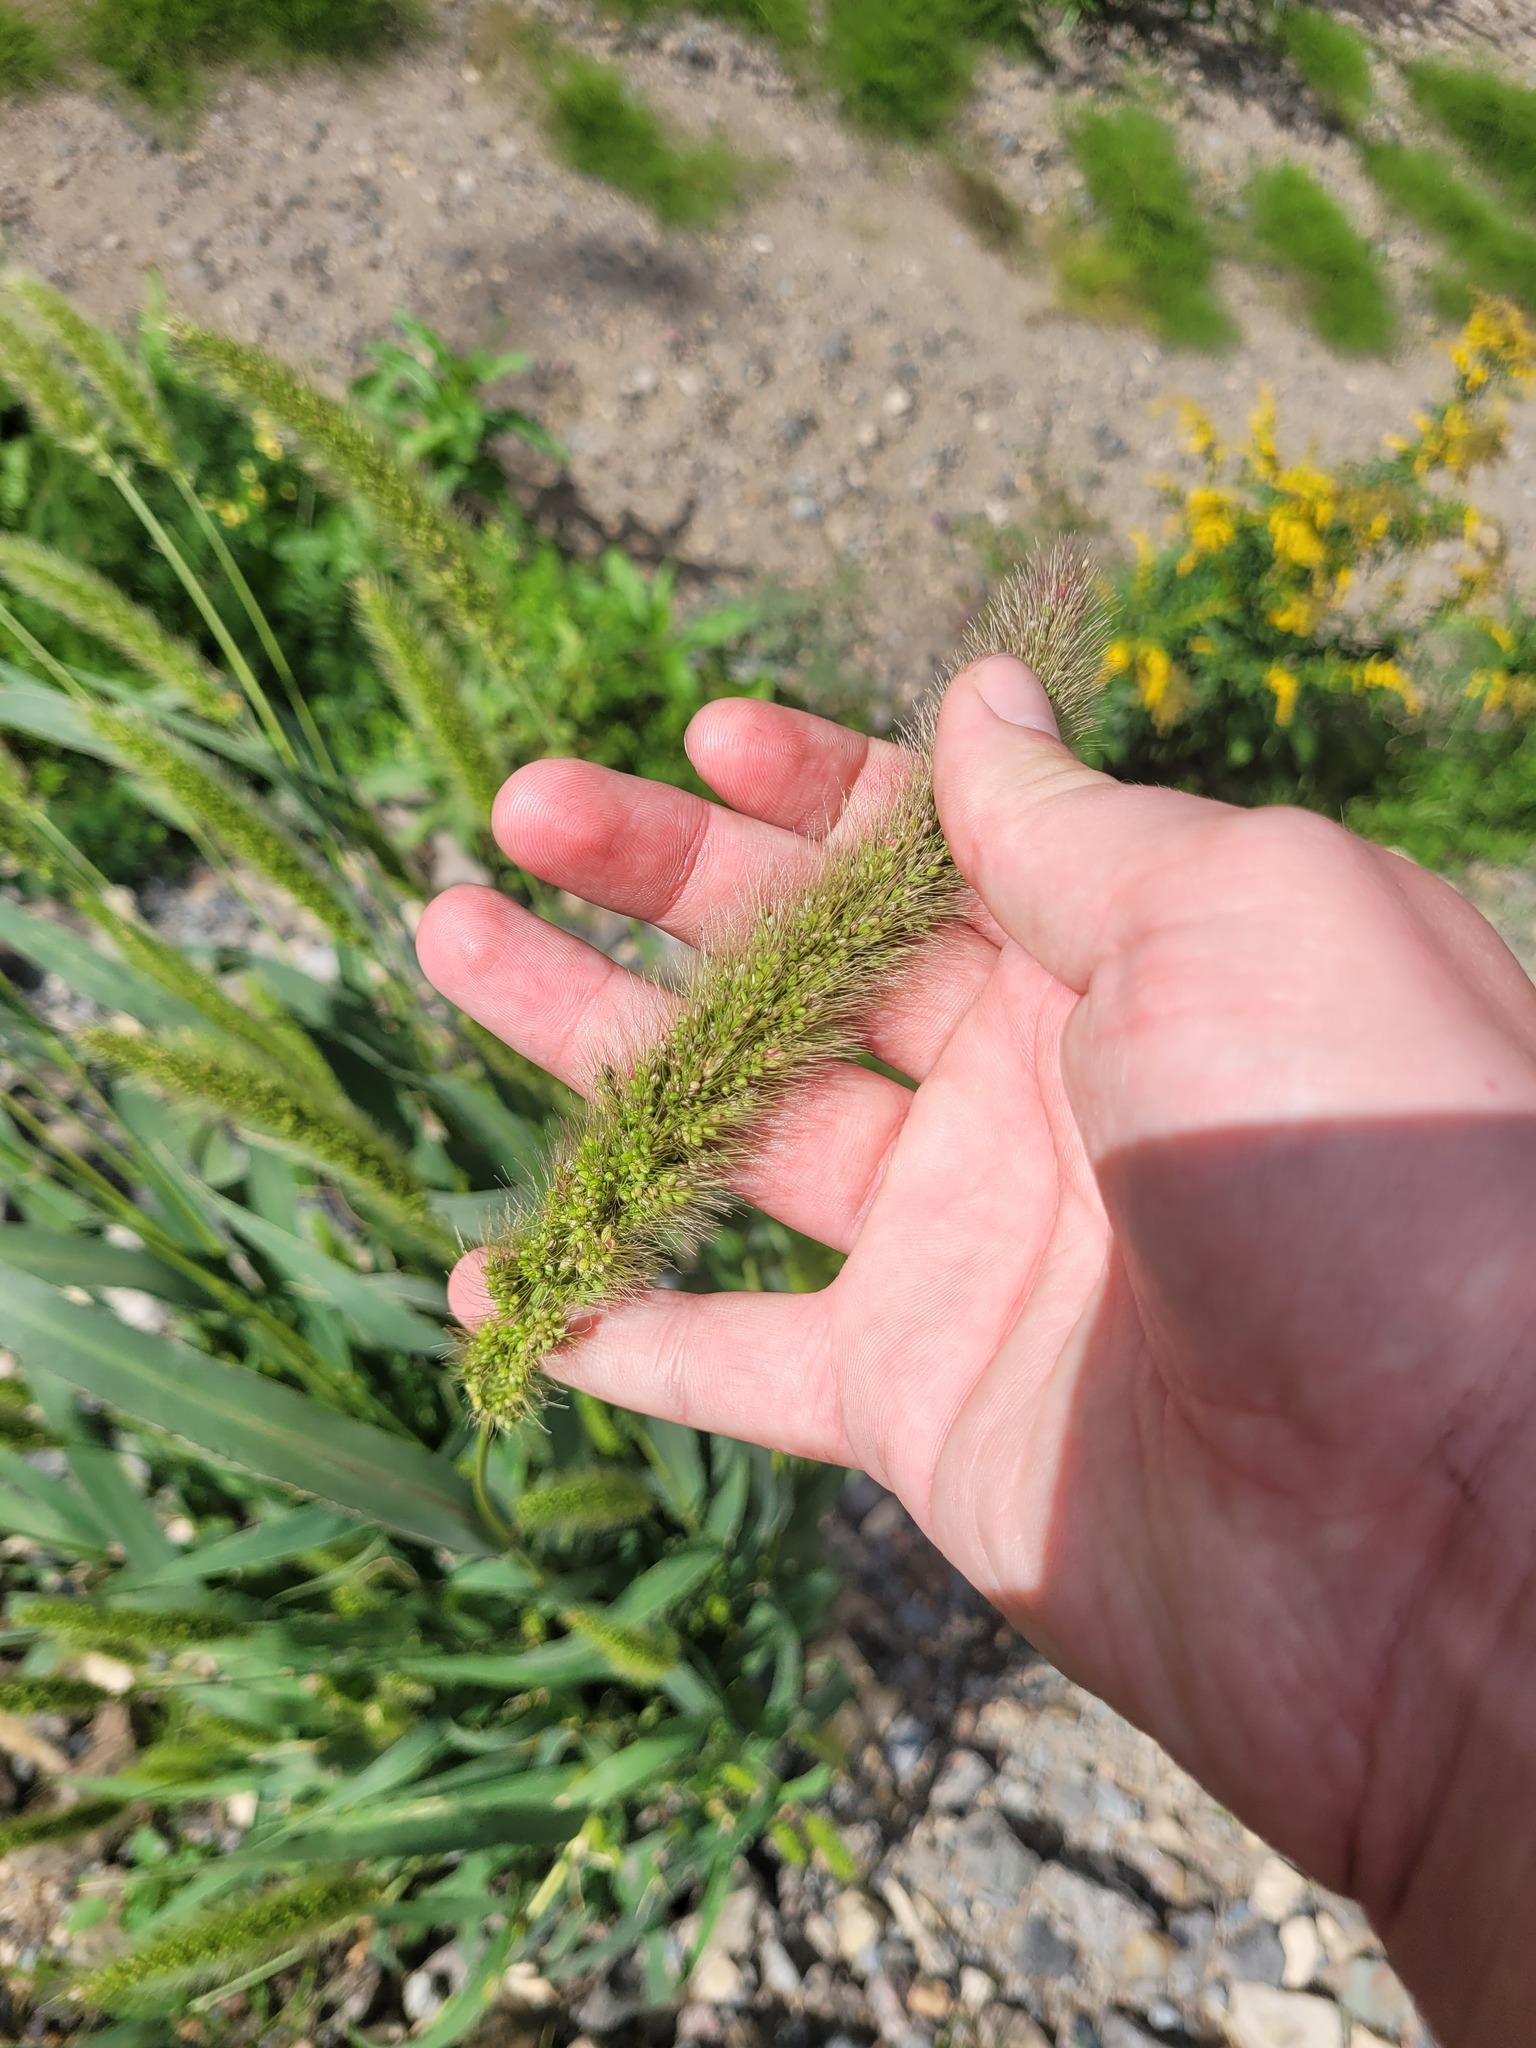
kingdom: Plantae
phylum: Tracheophyta
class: Liliopsida
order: Poales
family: Poaceae
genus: Setaria
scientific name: Setaria viridis
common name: Green bristlegrass
